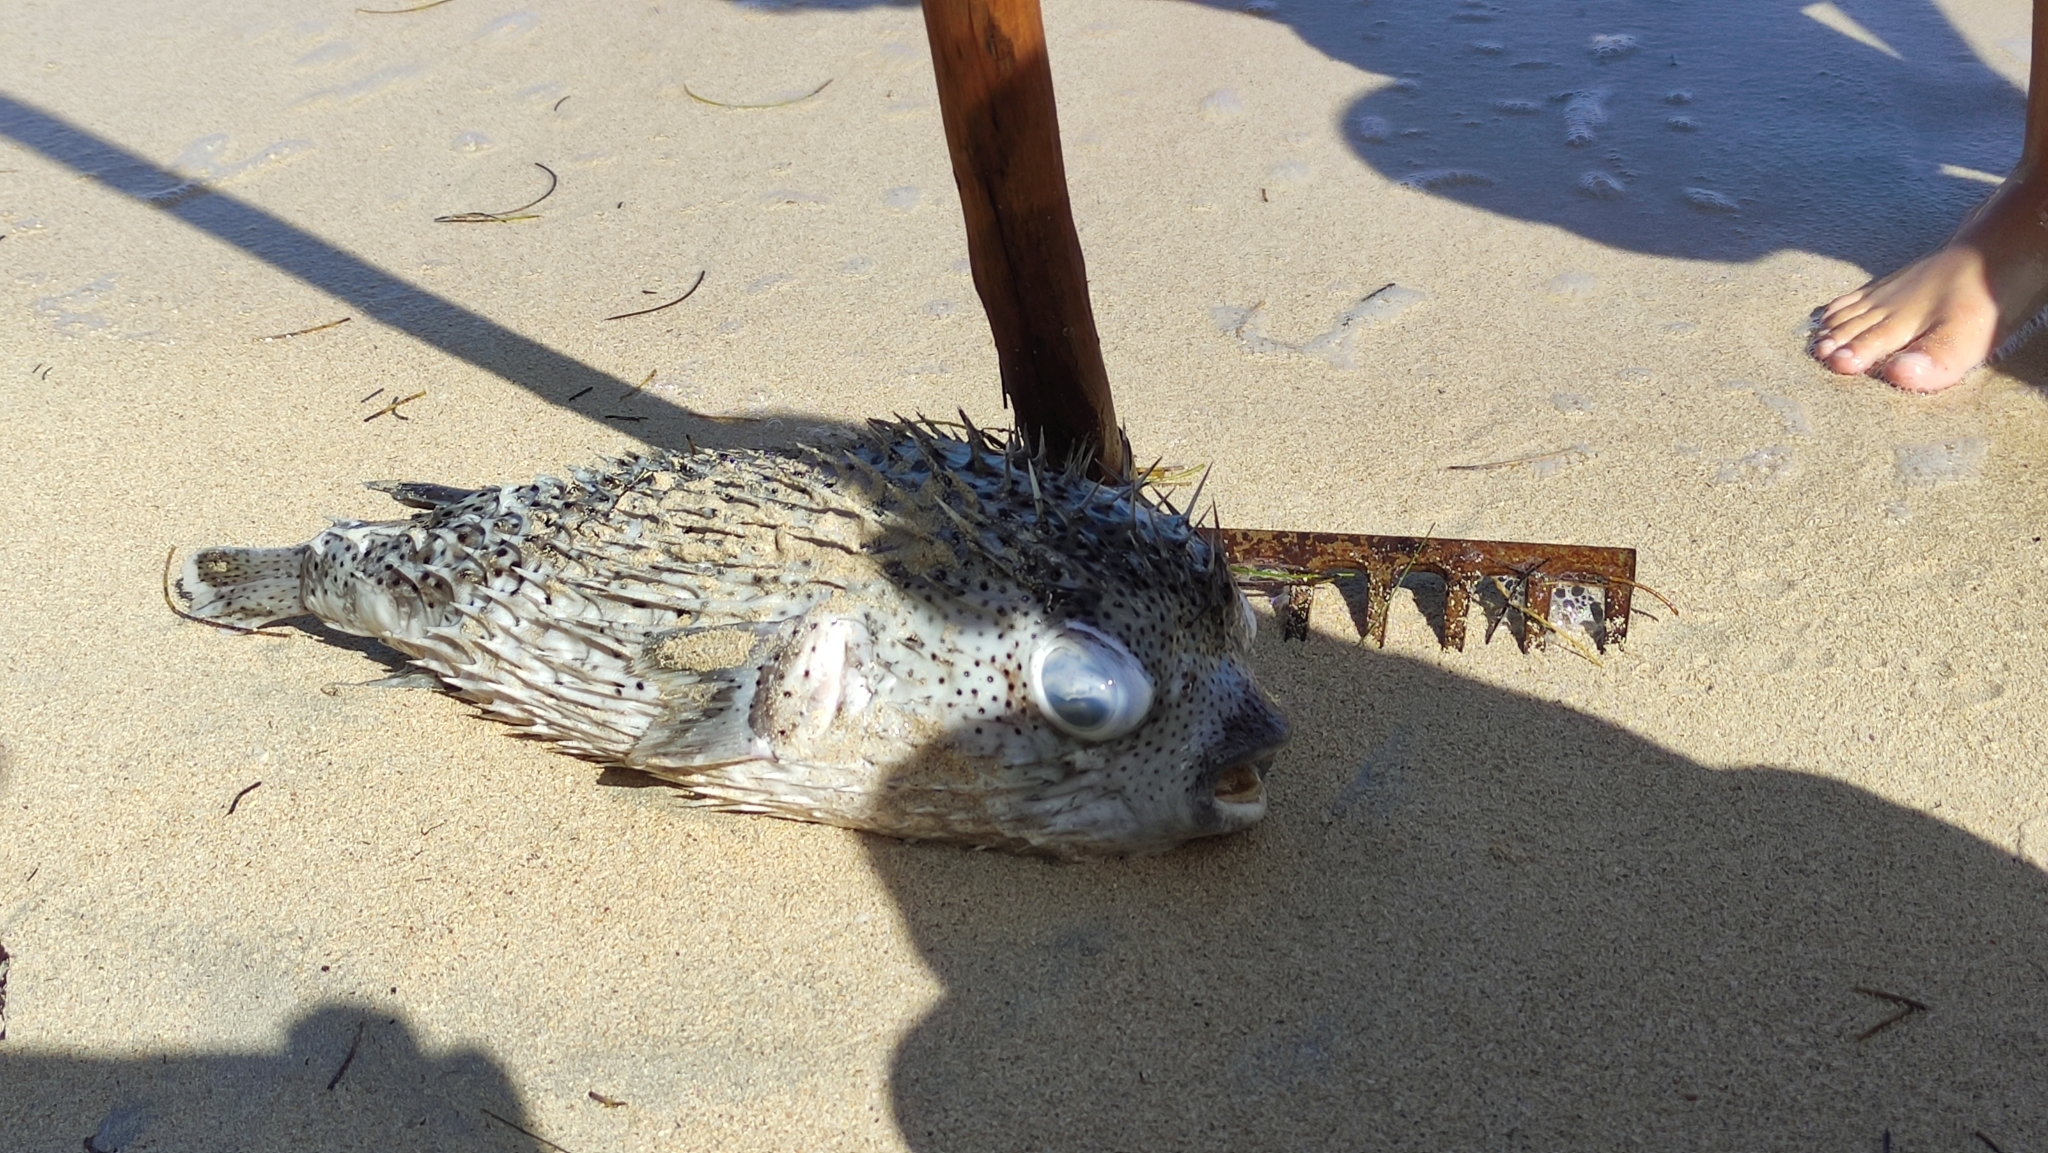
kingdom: Animalia
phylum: Chordata
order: Tetraodontiformes
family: Diodontidae
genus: Diodon
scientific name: Diodon hystrix
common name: Giant porcupinefish
